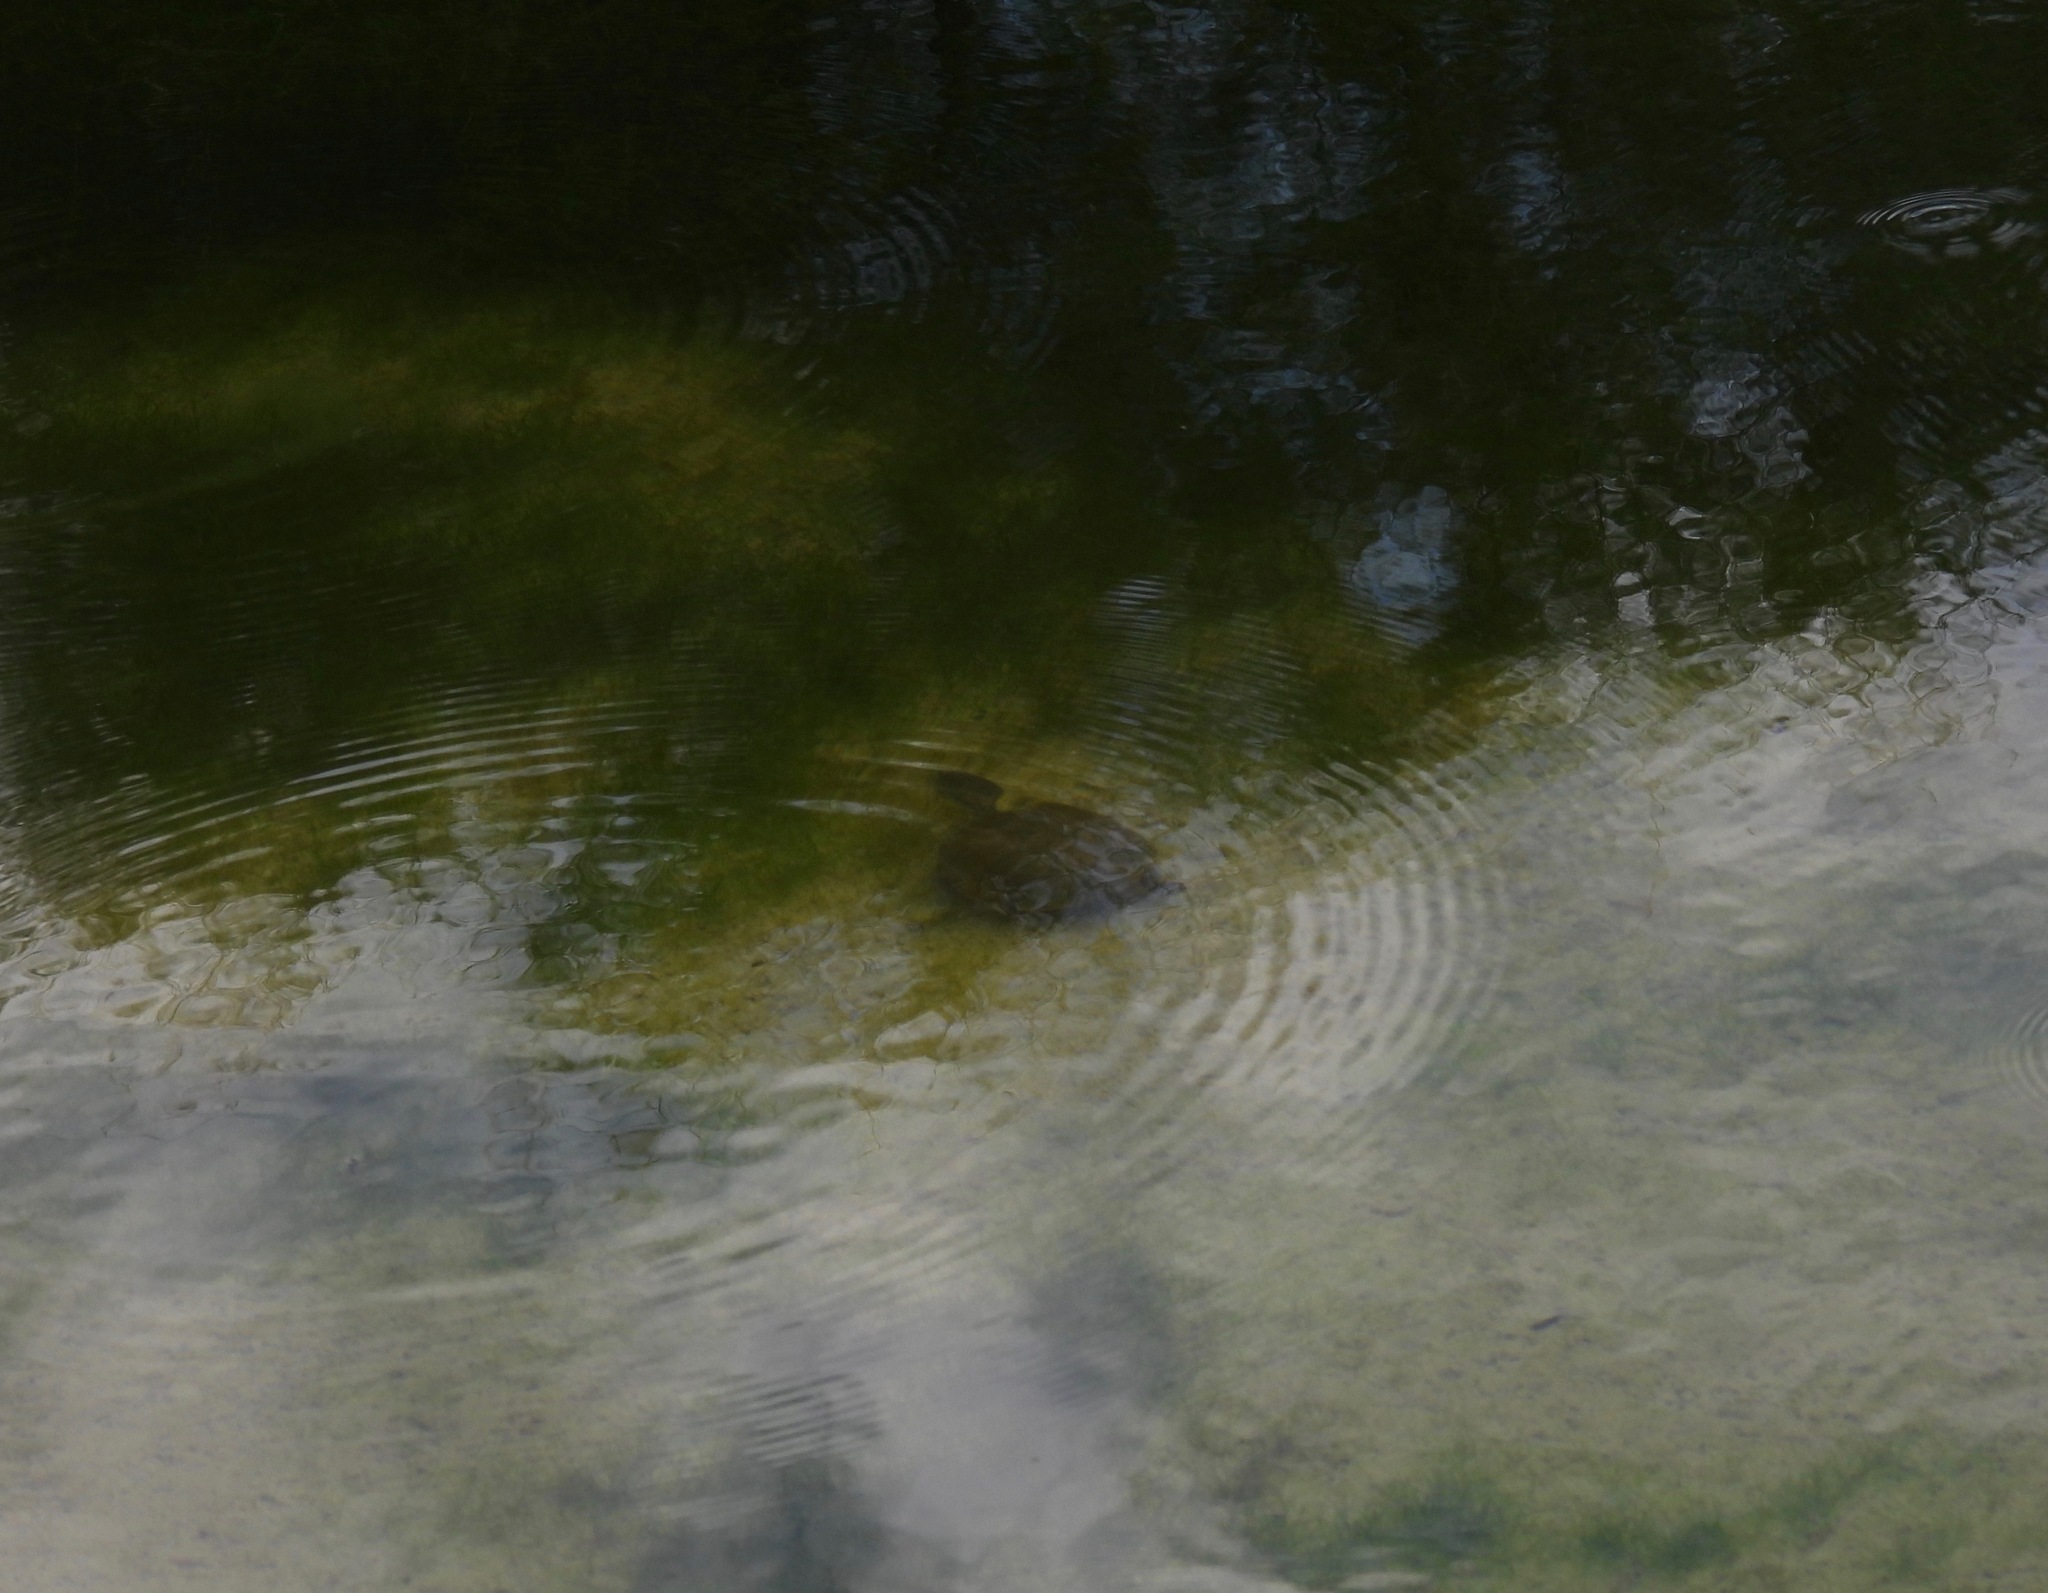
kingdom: Animalia
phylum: Chordata
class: Testudines
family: Kinosternidae
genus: Kinosternon
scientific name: Kinosternon flavescens
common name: Yellow mud turtle
